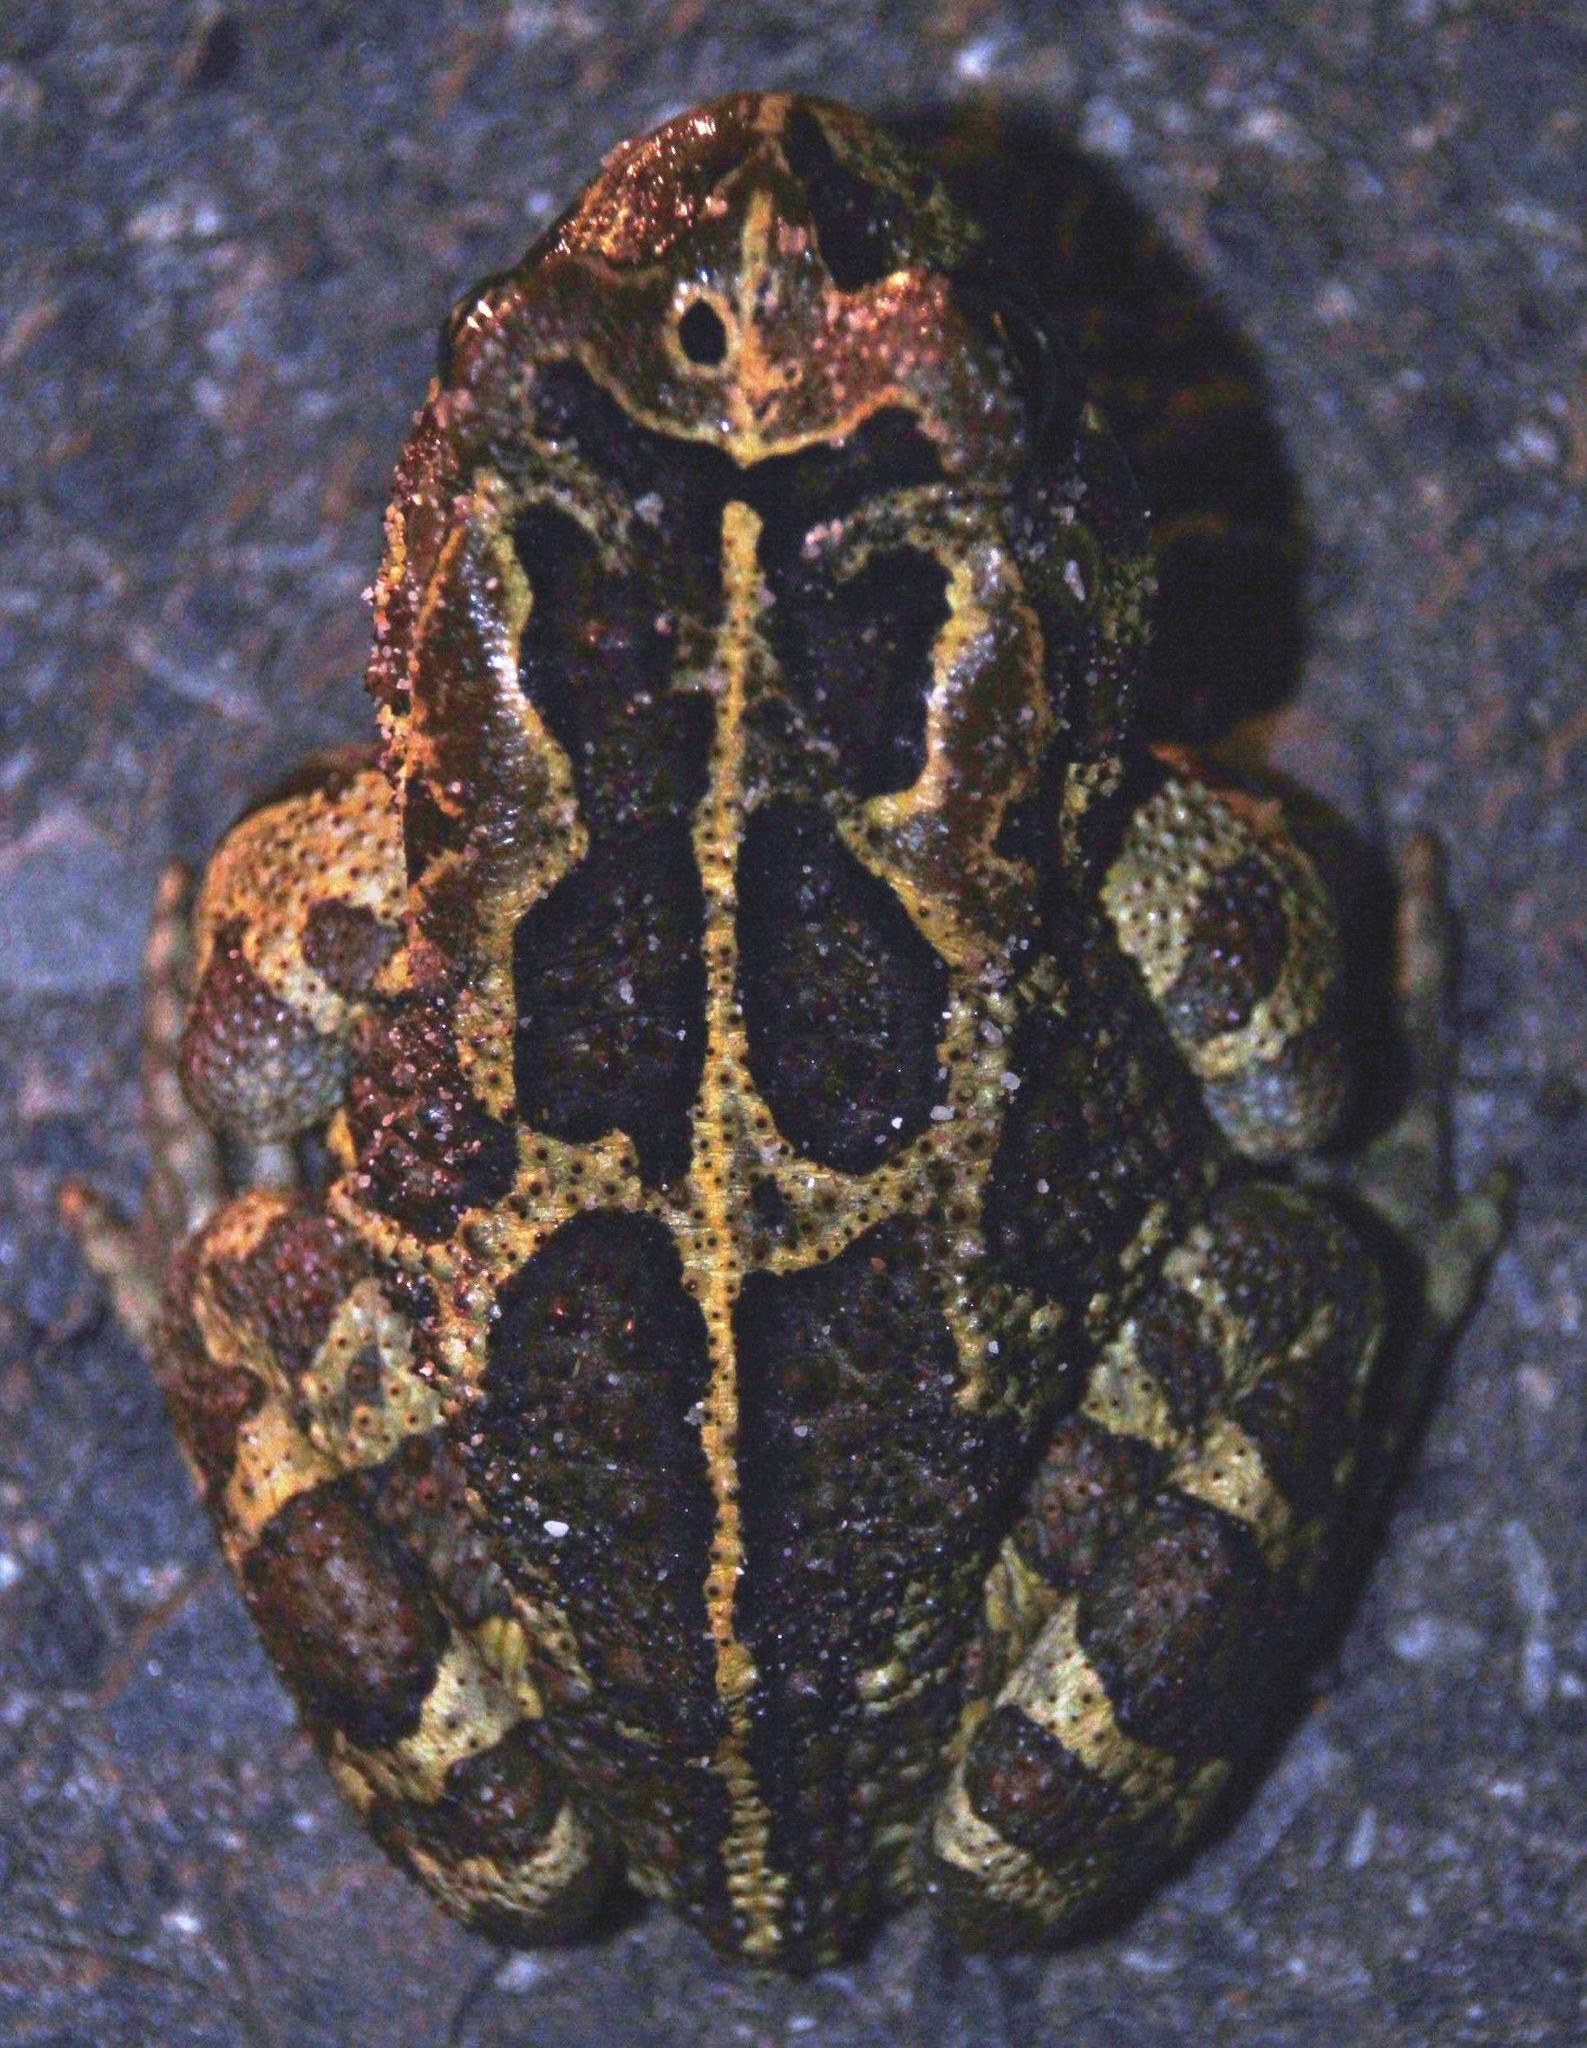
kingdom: Animalia
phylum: Chordata
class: Amphibia
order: Anura
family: Bufonidae
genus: Sclerophrys
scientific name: Sclerophrys pantherina
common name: Panther toad
